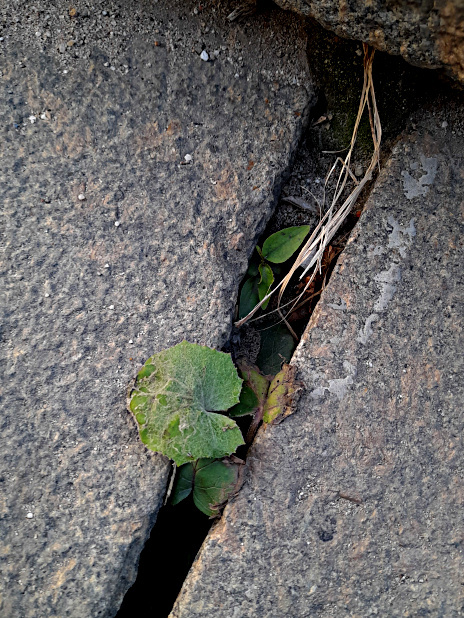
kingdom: Plantae
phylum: Tracheophyta
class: Magnoliopsida
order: Asterales
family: Asteraceae
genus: Tussilago
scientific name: Tussilago farfara
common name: Coltsfoot
